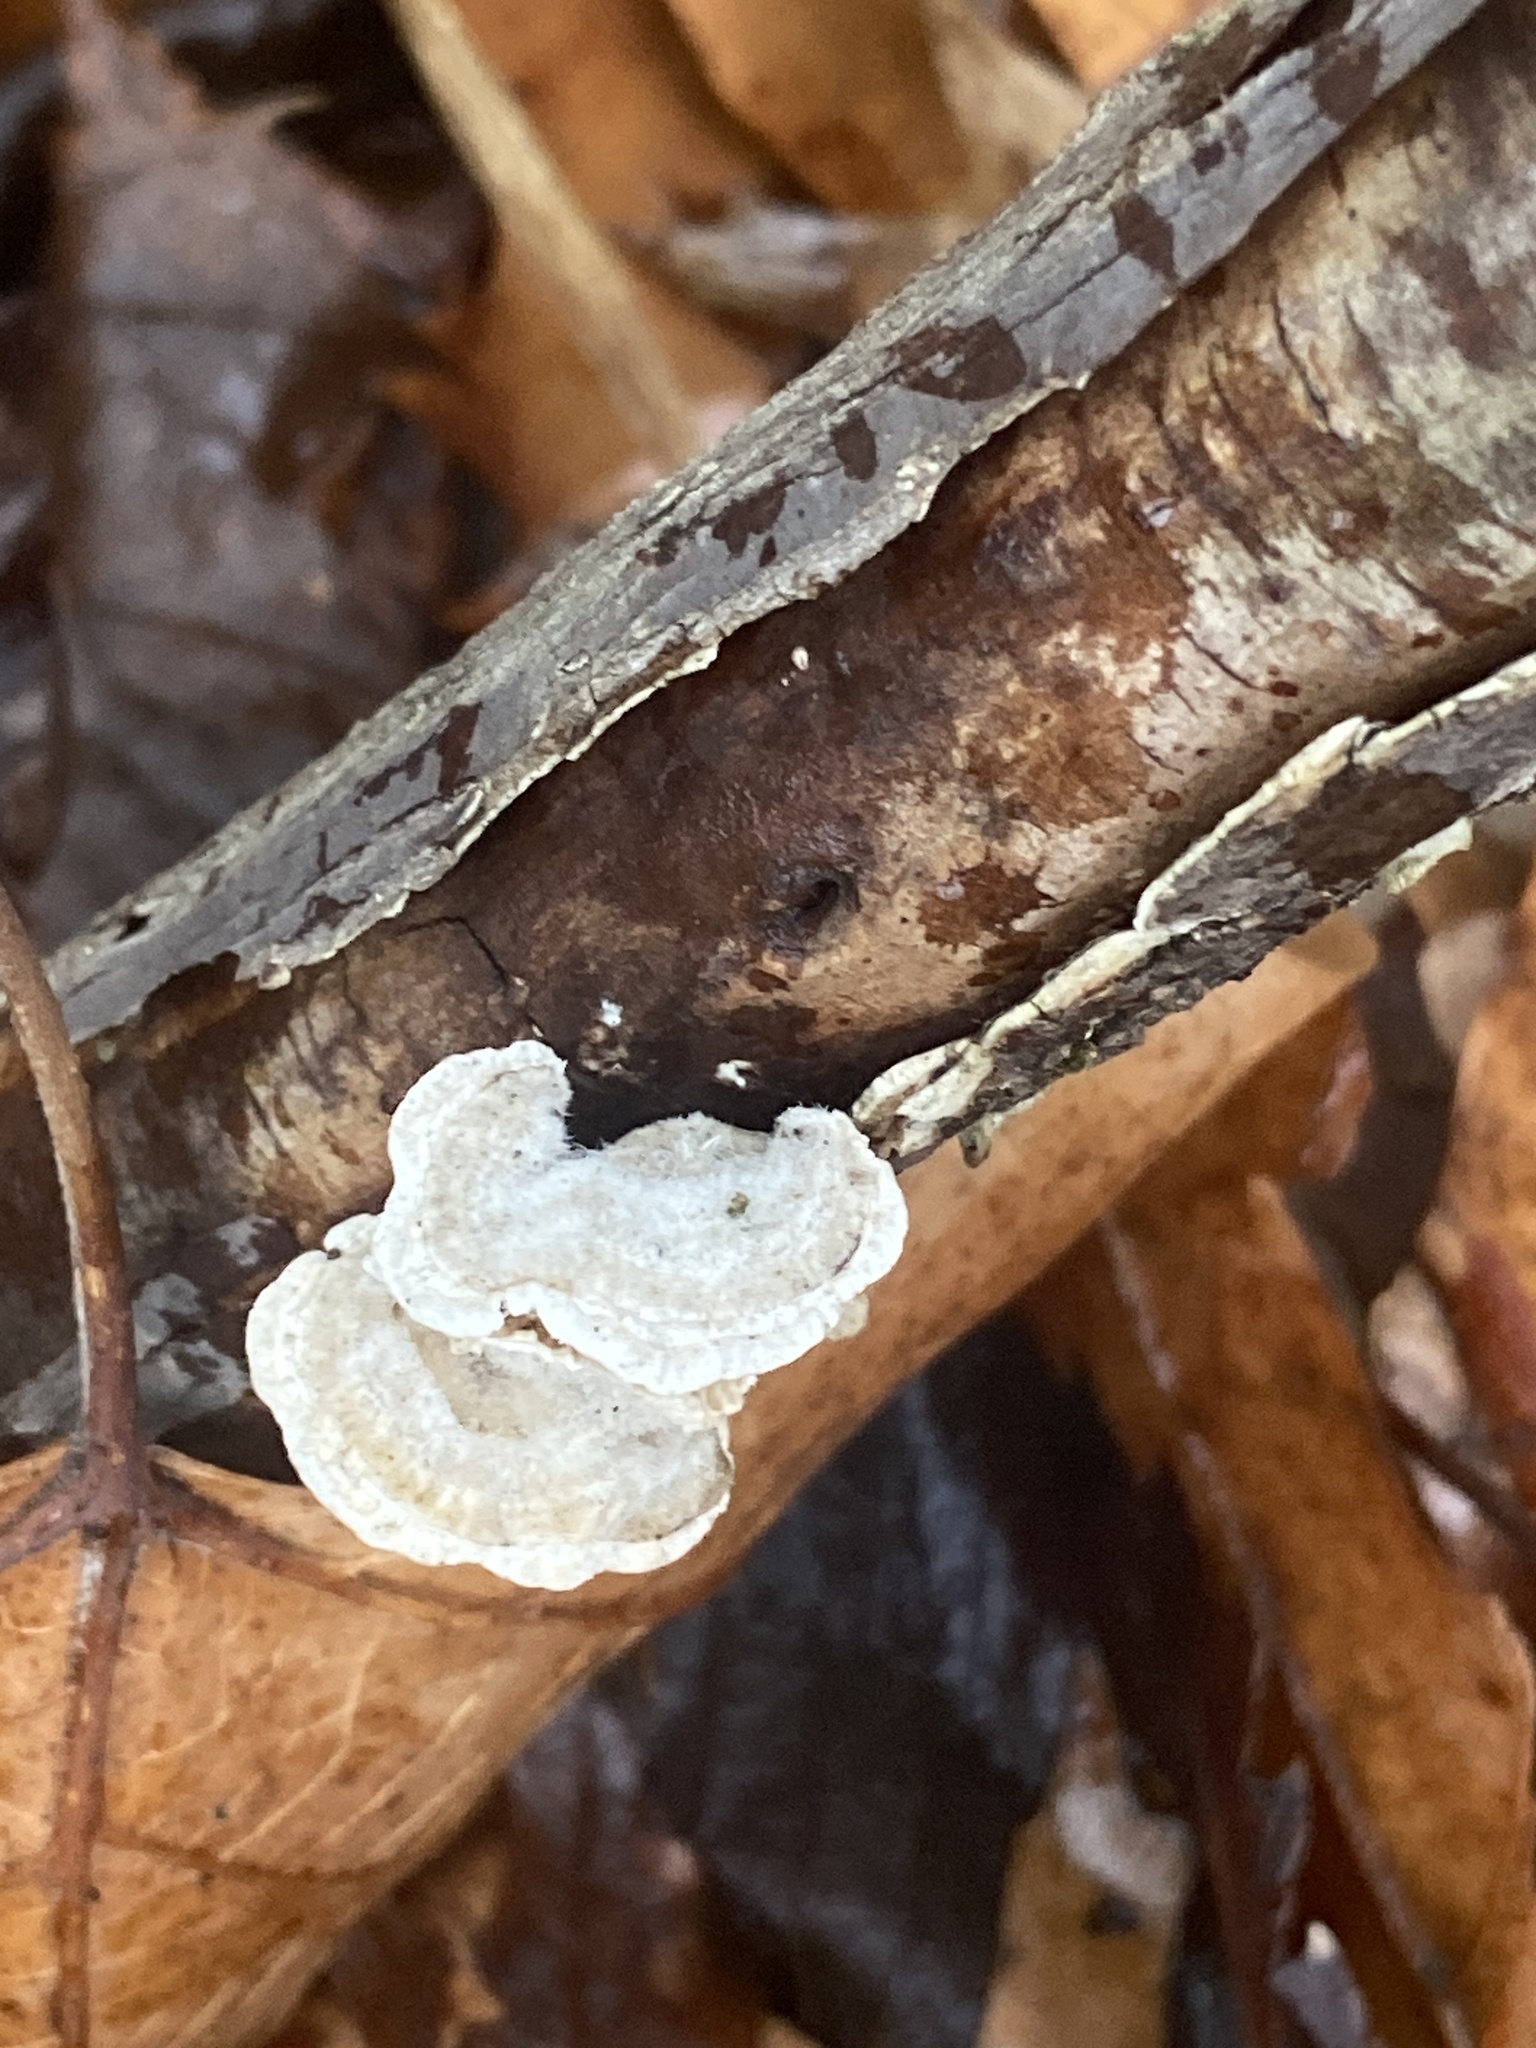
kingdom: Fungi
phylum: Basidiomycota
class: Agaricomycetes
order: Polyporales
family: Polyporaceae
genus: Lenzites
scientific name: Lenzites betulinus
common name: Birch mazegill
